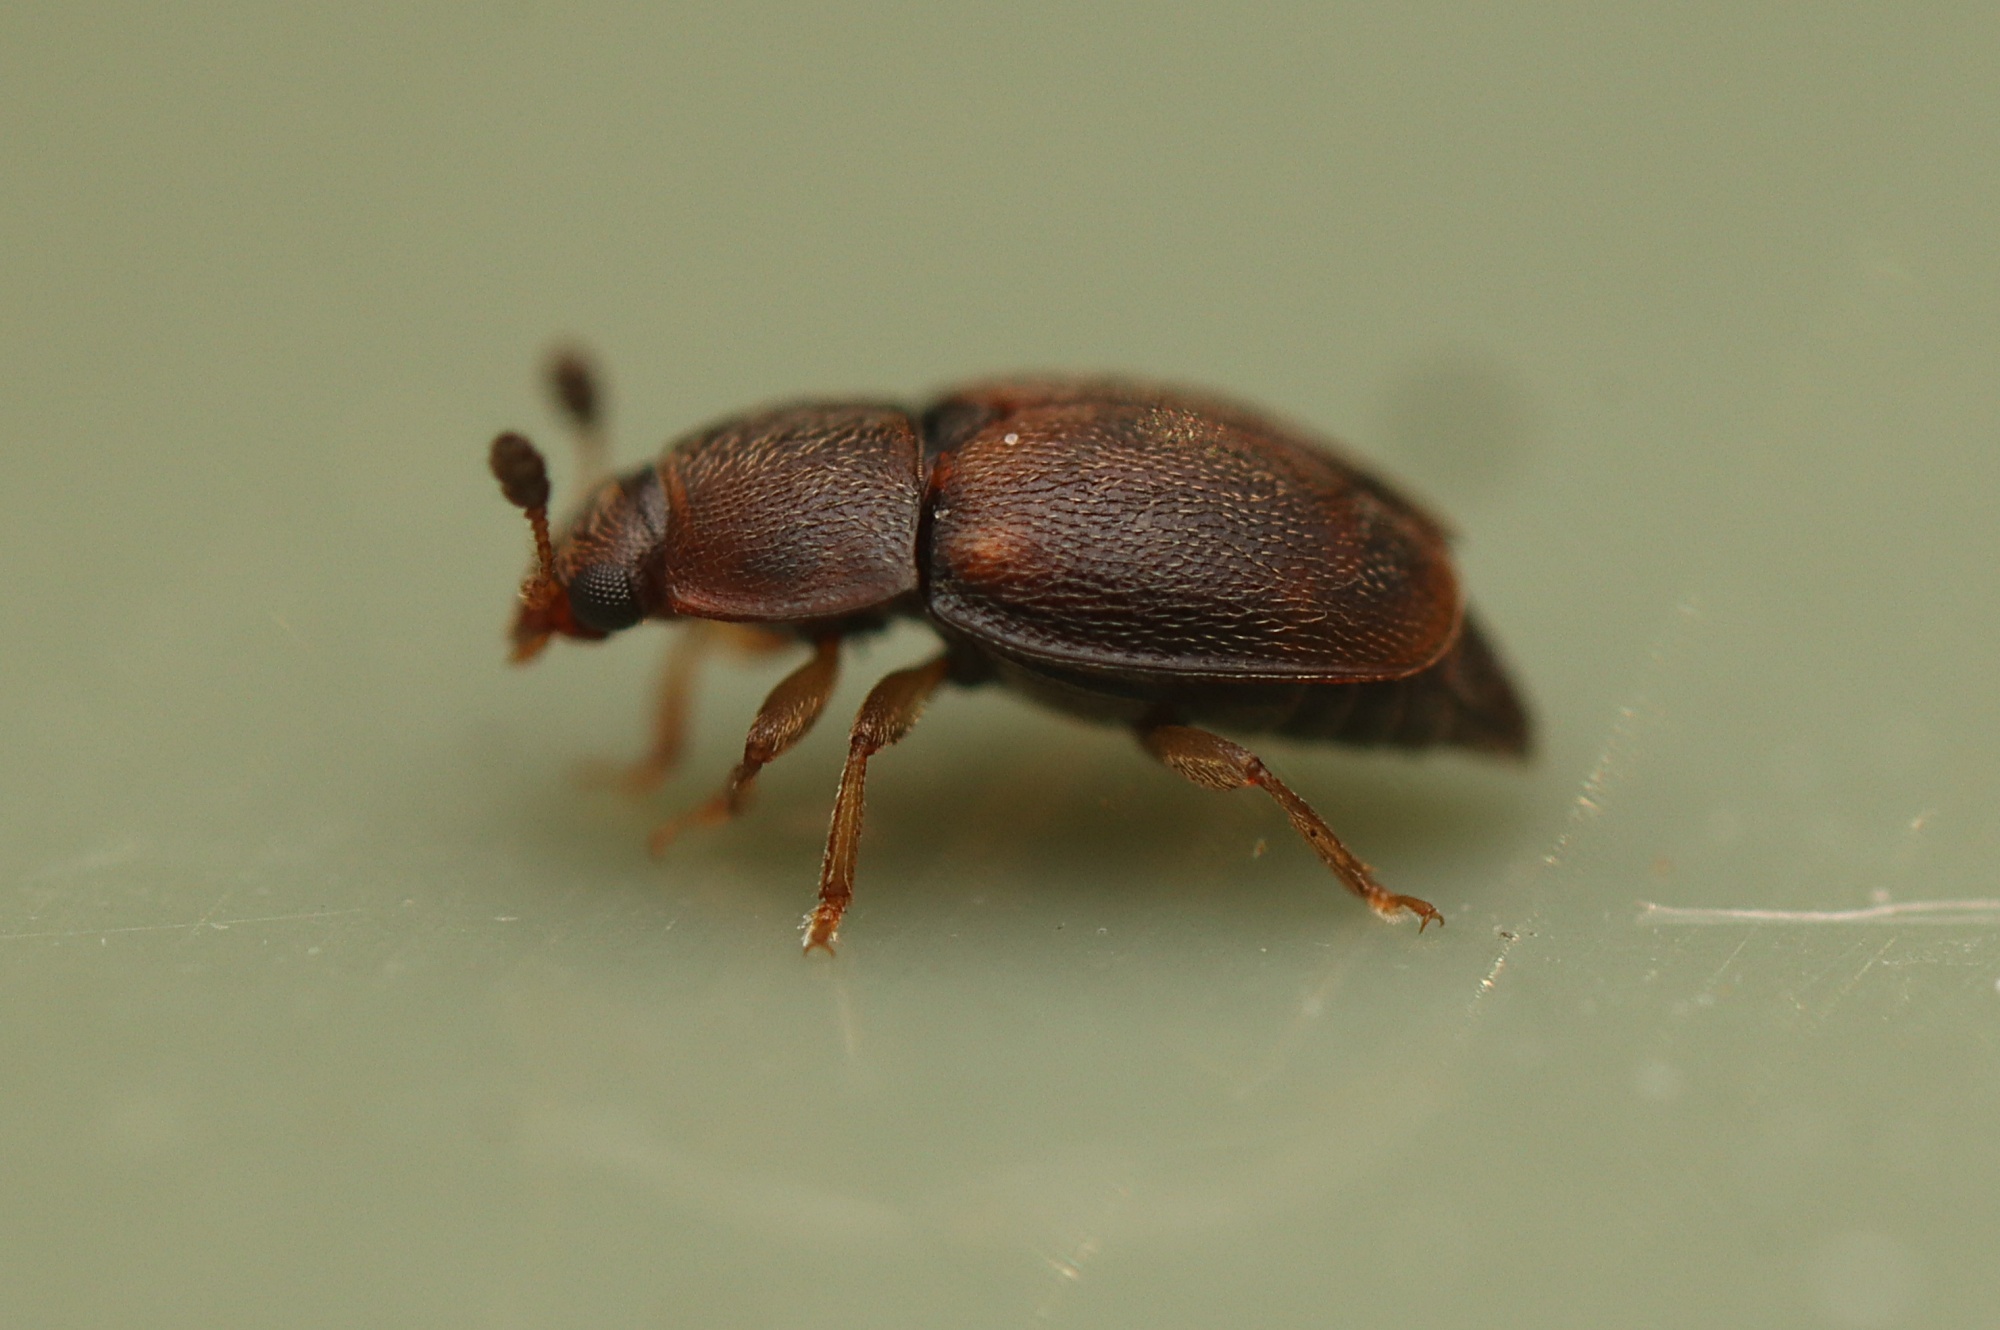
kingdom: Animalia
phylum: Arthropoda
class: Insecta
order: Coleoptera
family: Nitidulidae
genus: Epuraea
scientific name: Epuraea scutellaris
